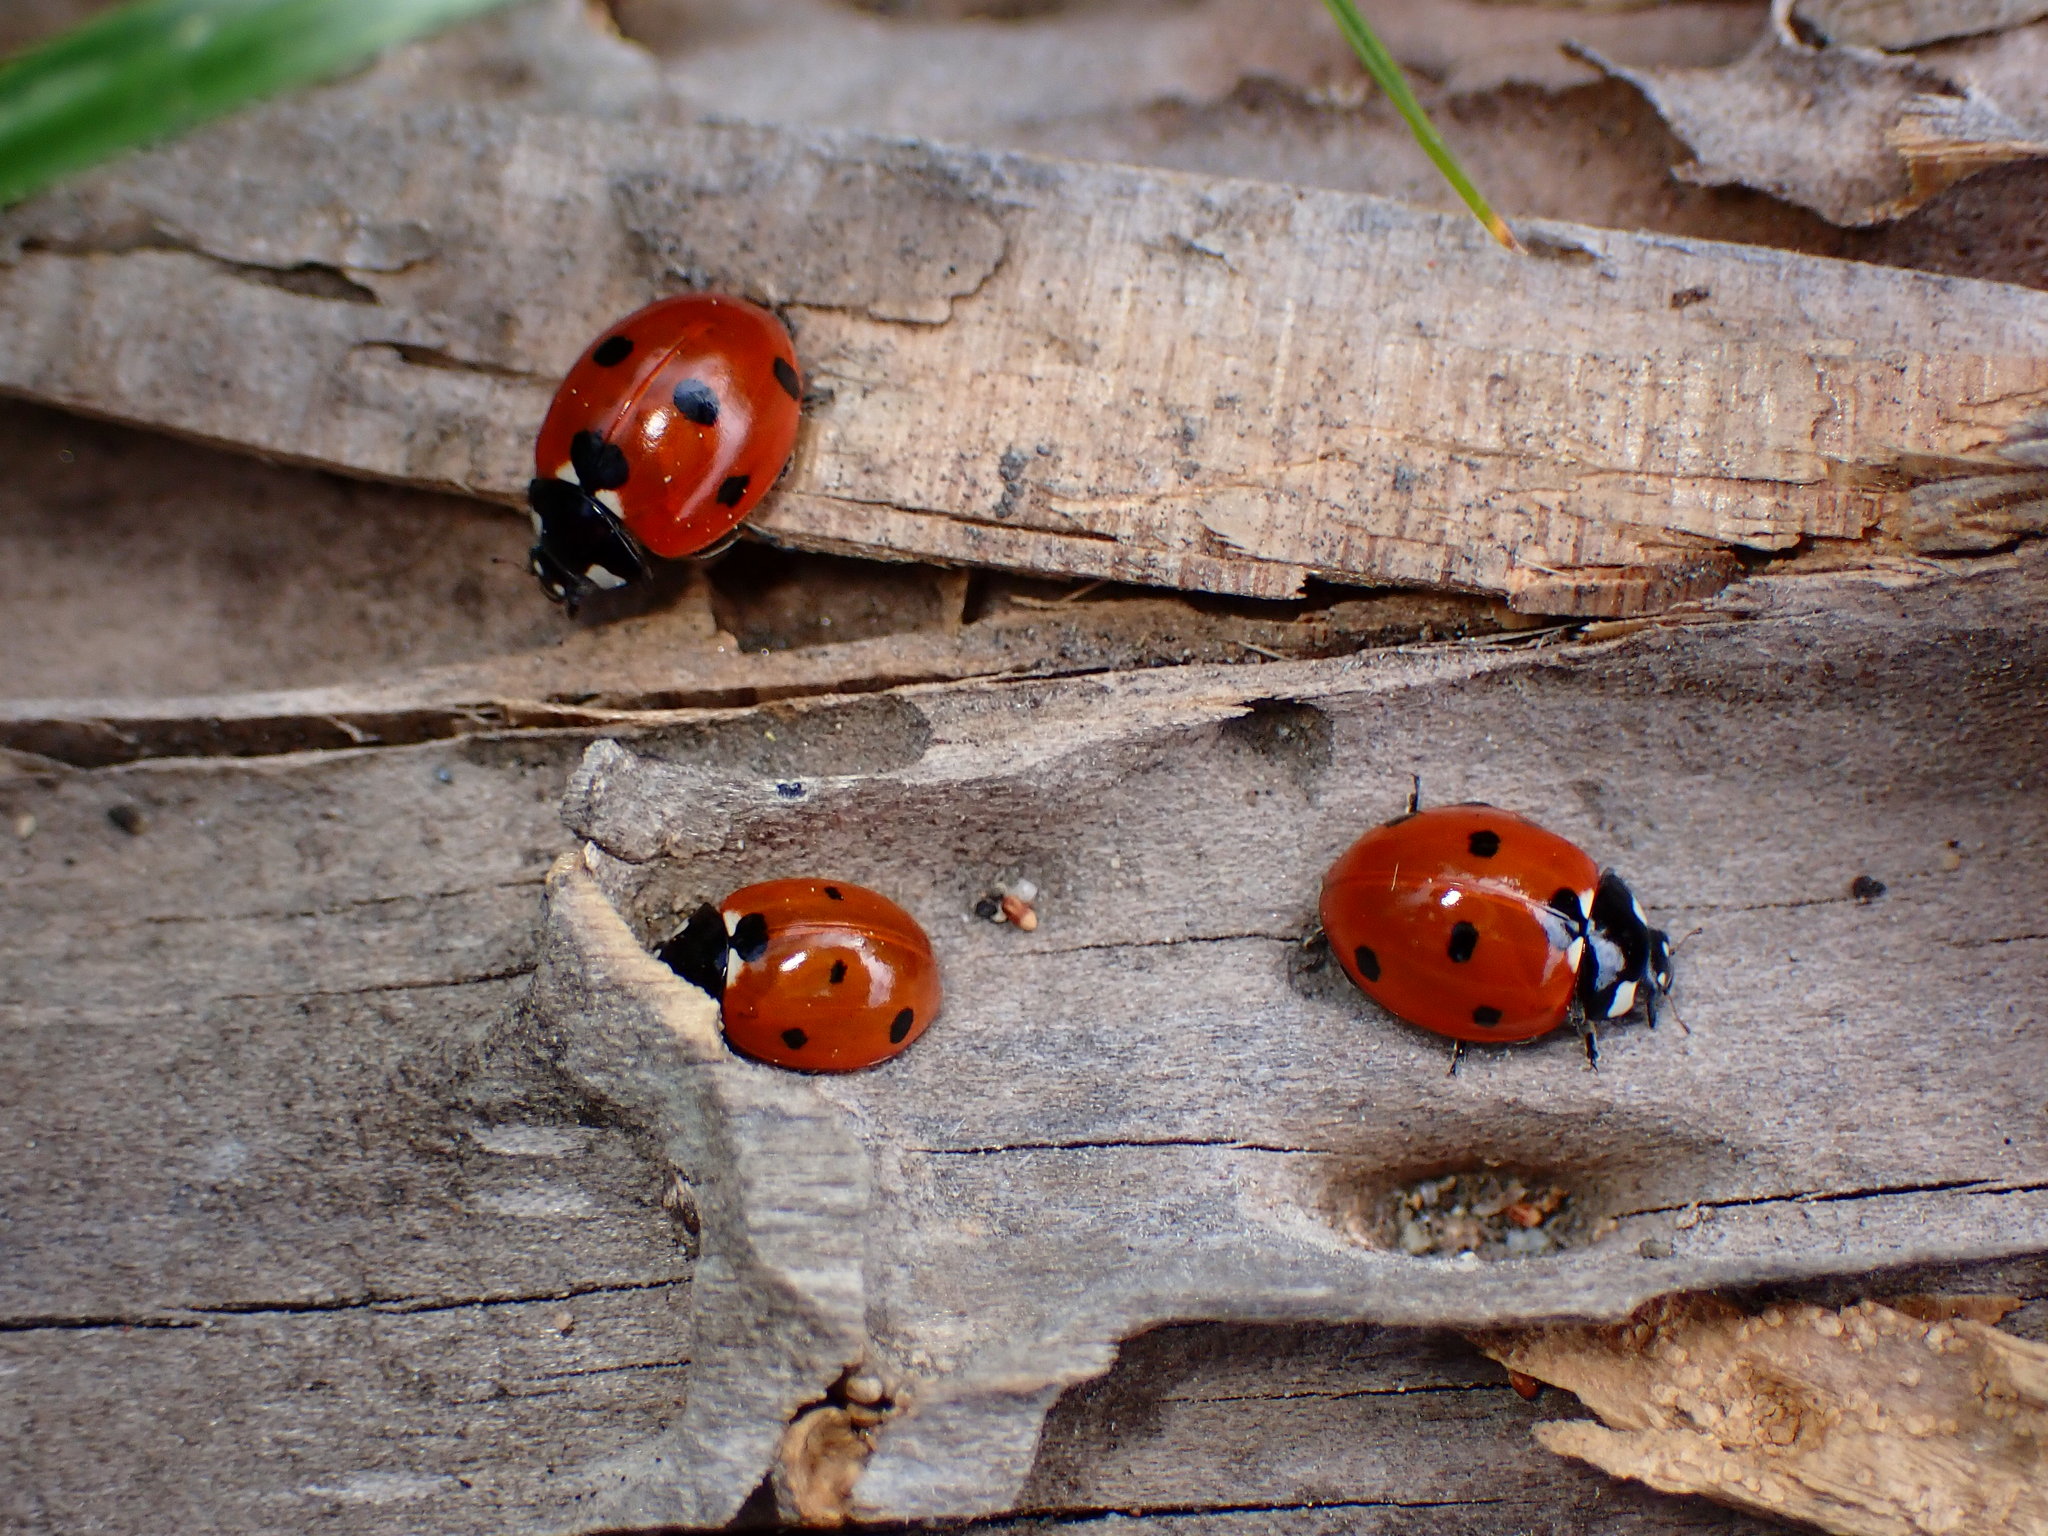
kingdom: Animalia
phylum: Arthropoda
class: Insecta
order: Coleoptera
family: Coccinellidae
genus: Coccinella
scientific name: Coccinella septempunctata
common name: Sevenspotted lady beetle
